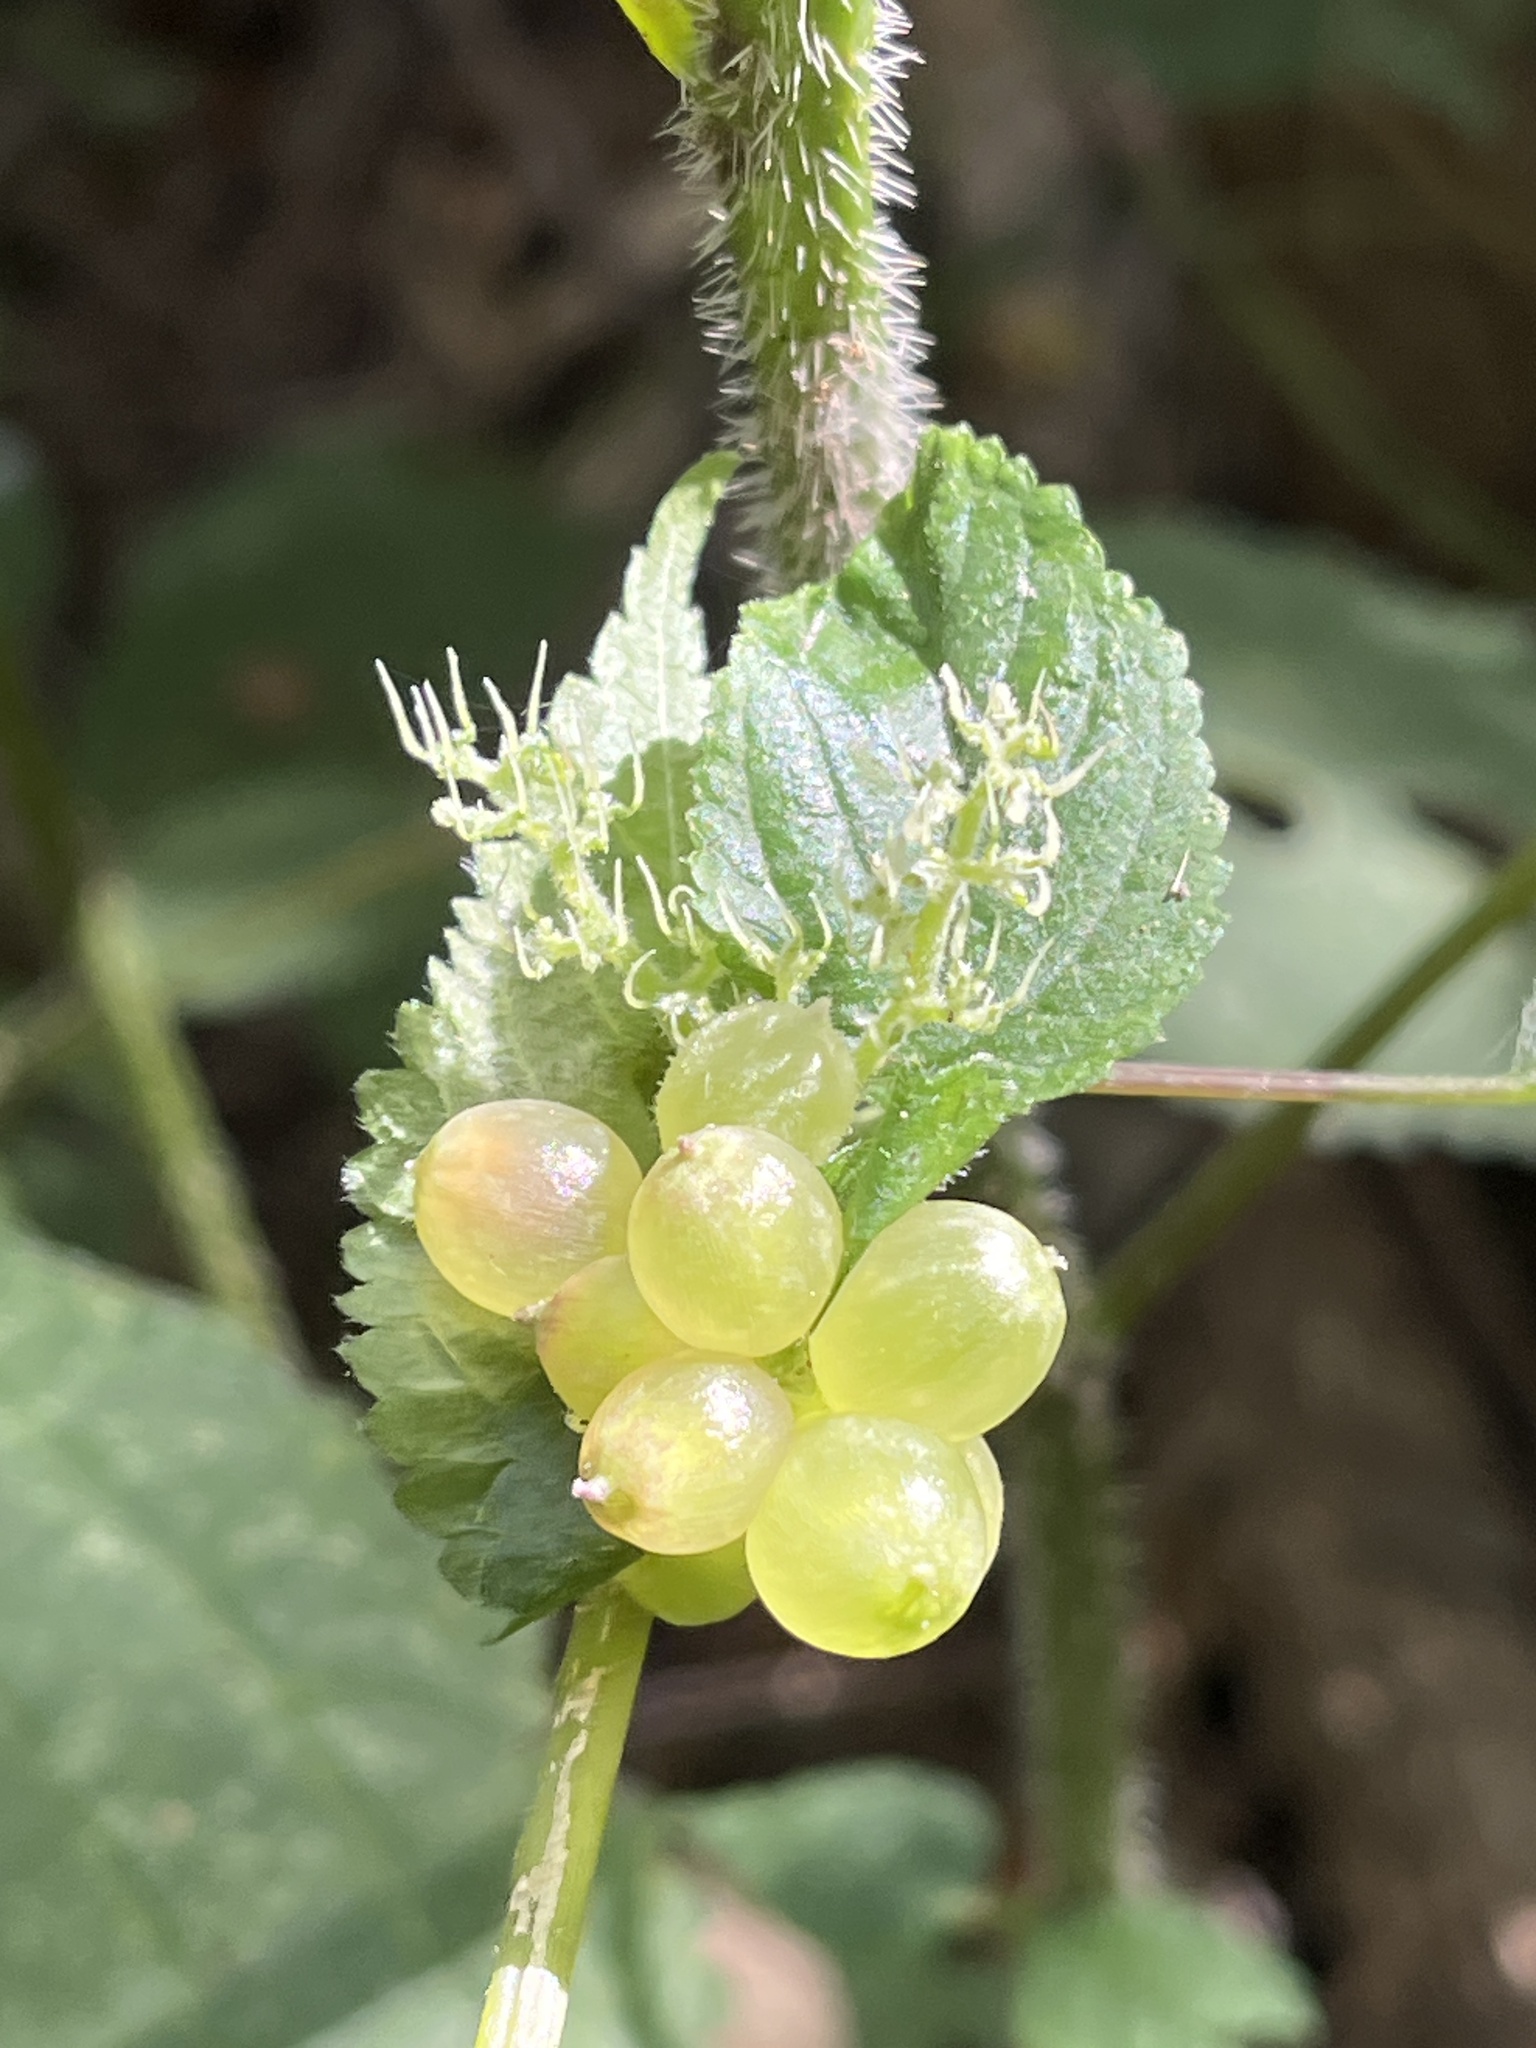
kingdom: Animalia
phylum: Arthropoda
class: Insecta
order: Diptera
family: Cecidomyiidae
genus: Dasineura
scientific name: Dasineura investita
